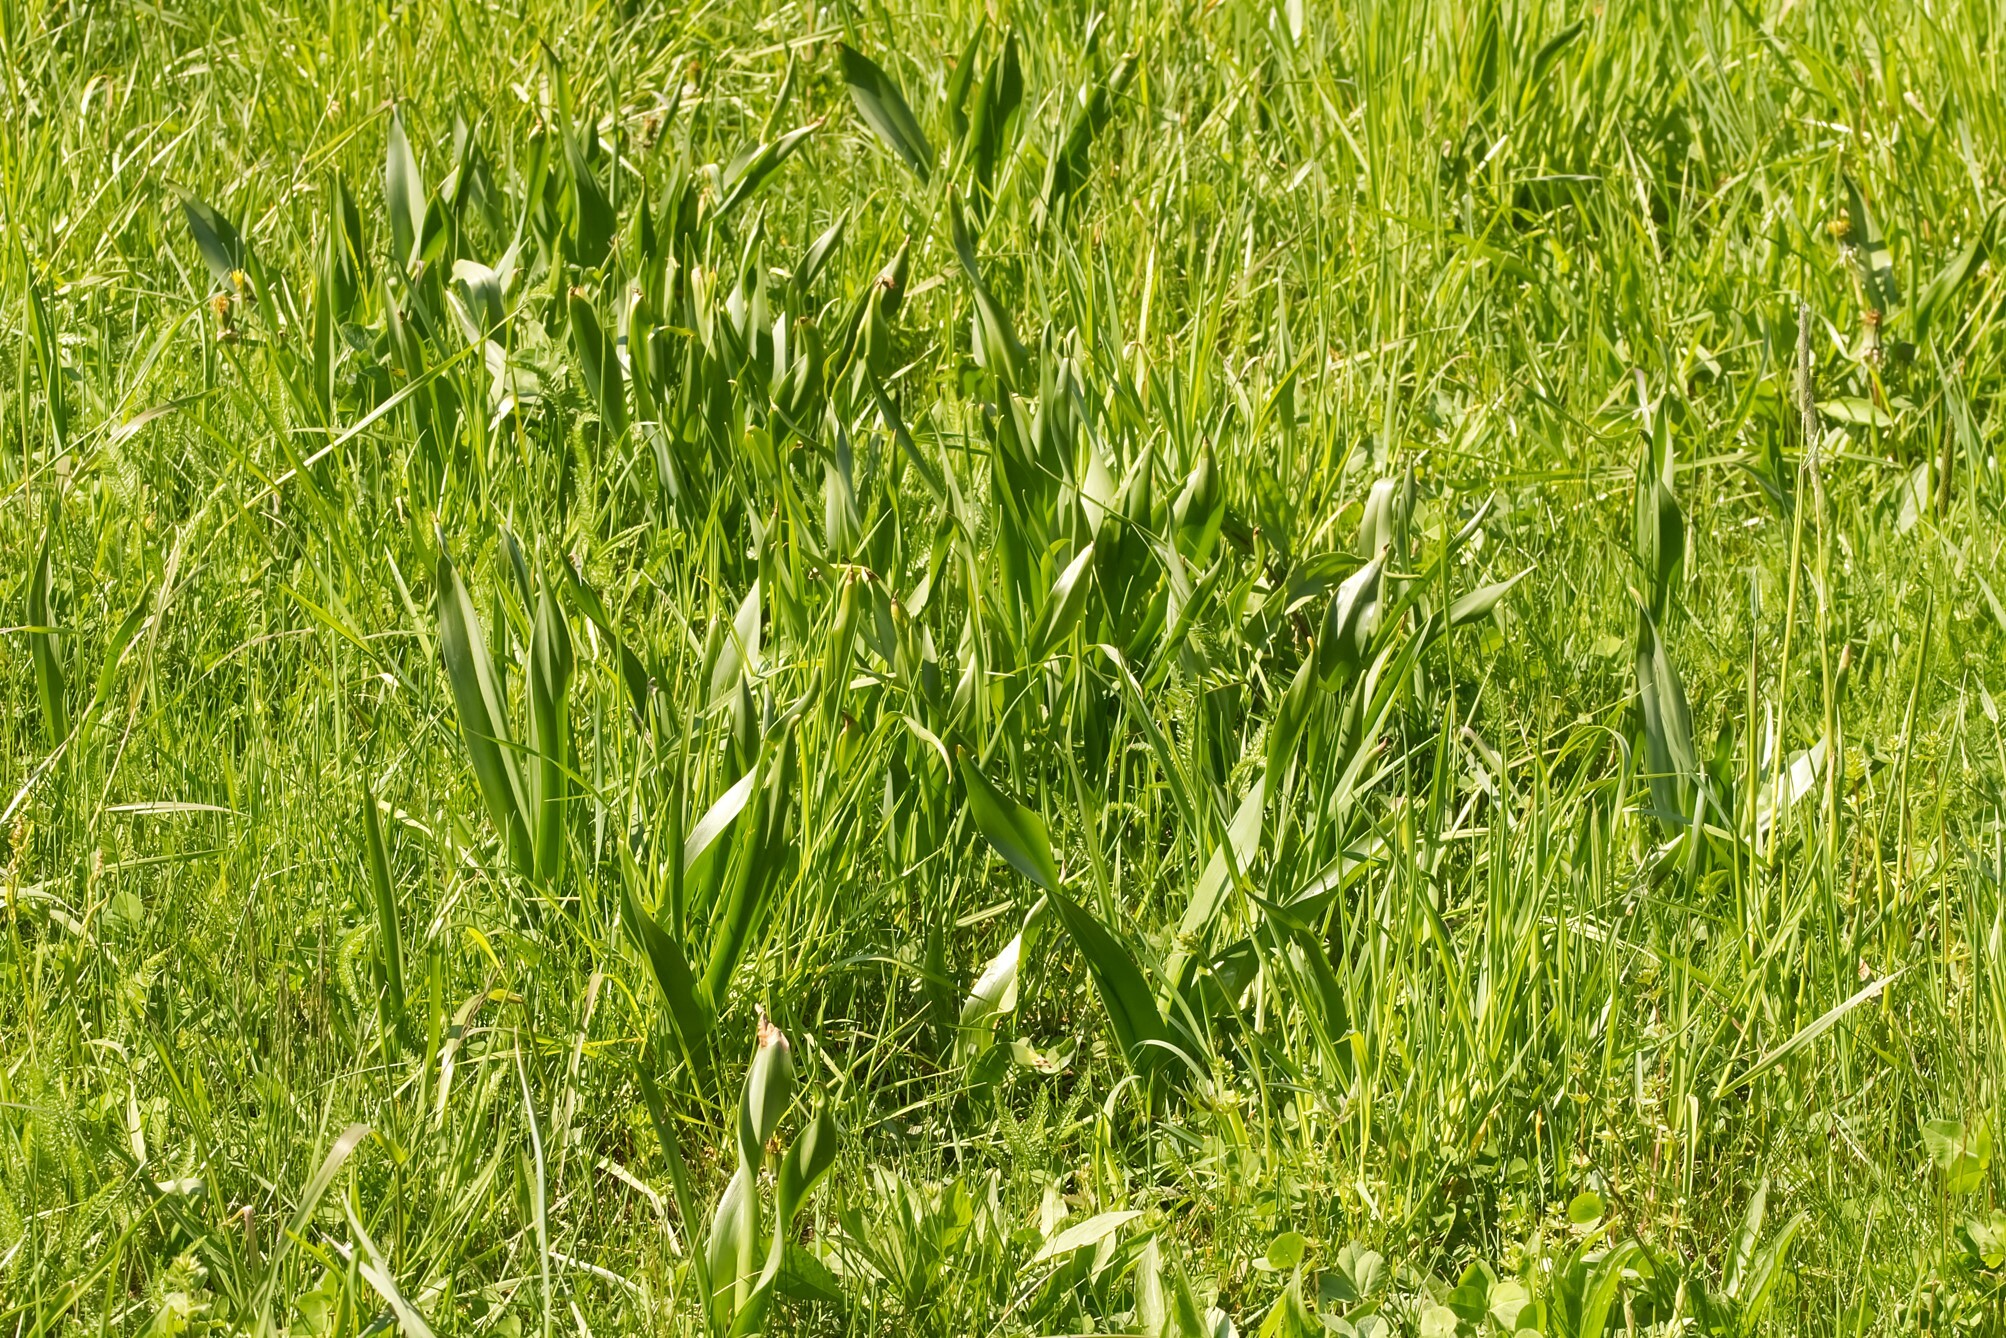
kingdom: Plantae
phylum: Tracheophyta
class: Liliopsida
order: Liliales
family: Colchicaceae
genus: Colchicum
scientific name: Colchicum autumnale
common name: Autumn crocus
